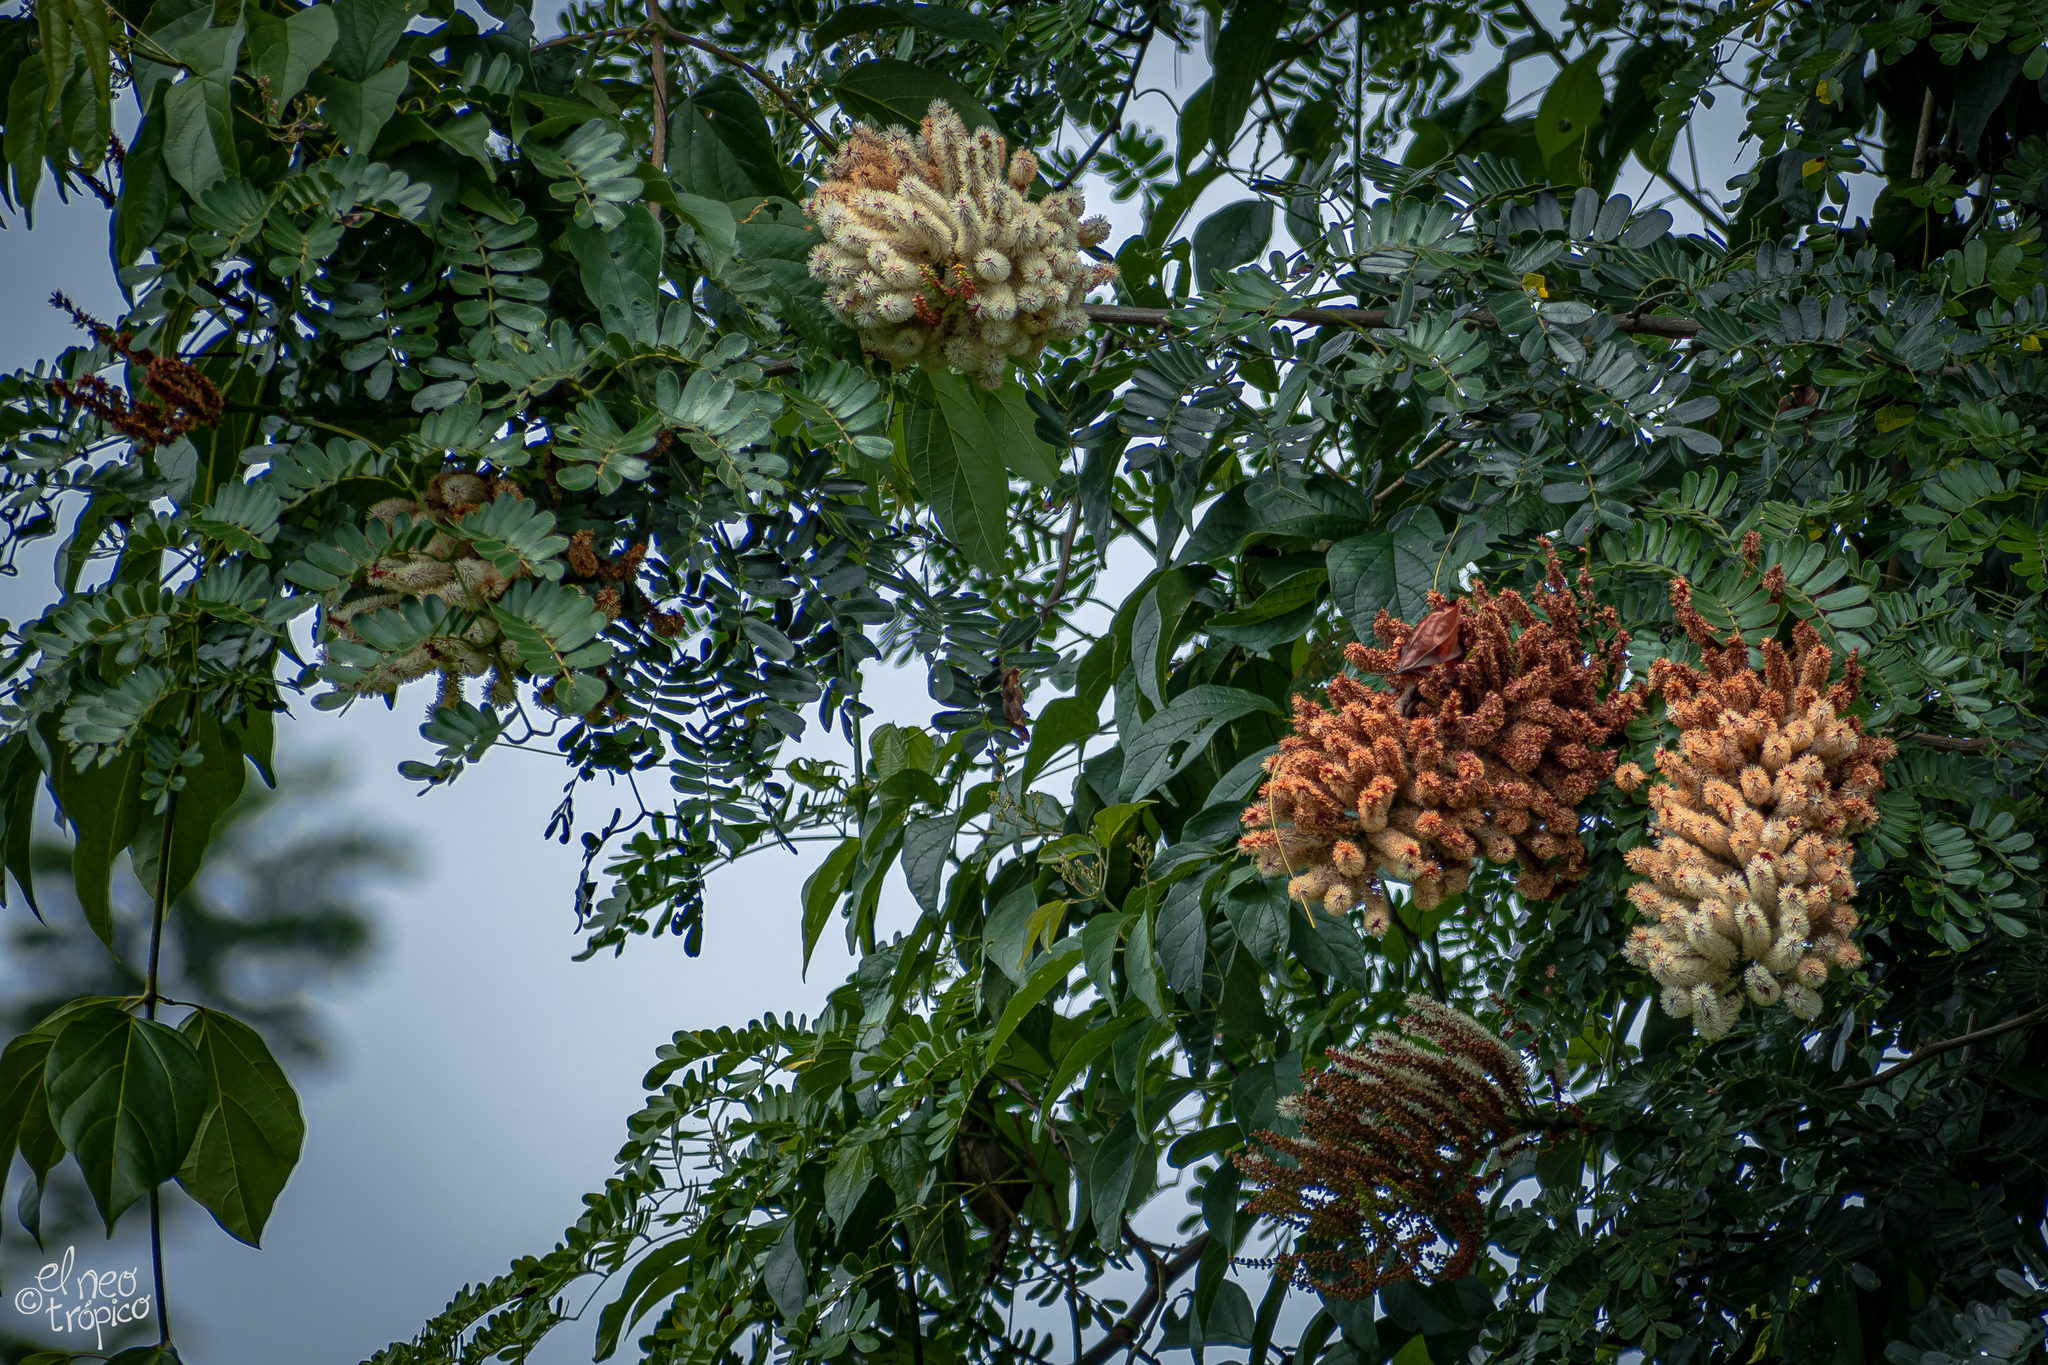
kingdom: Plantae
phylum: Tracheophyta
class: Magnoliopsida
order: Fabales
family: Fabaceae
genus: Entada
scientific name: Entada polystachya
